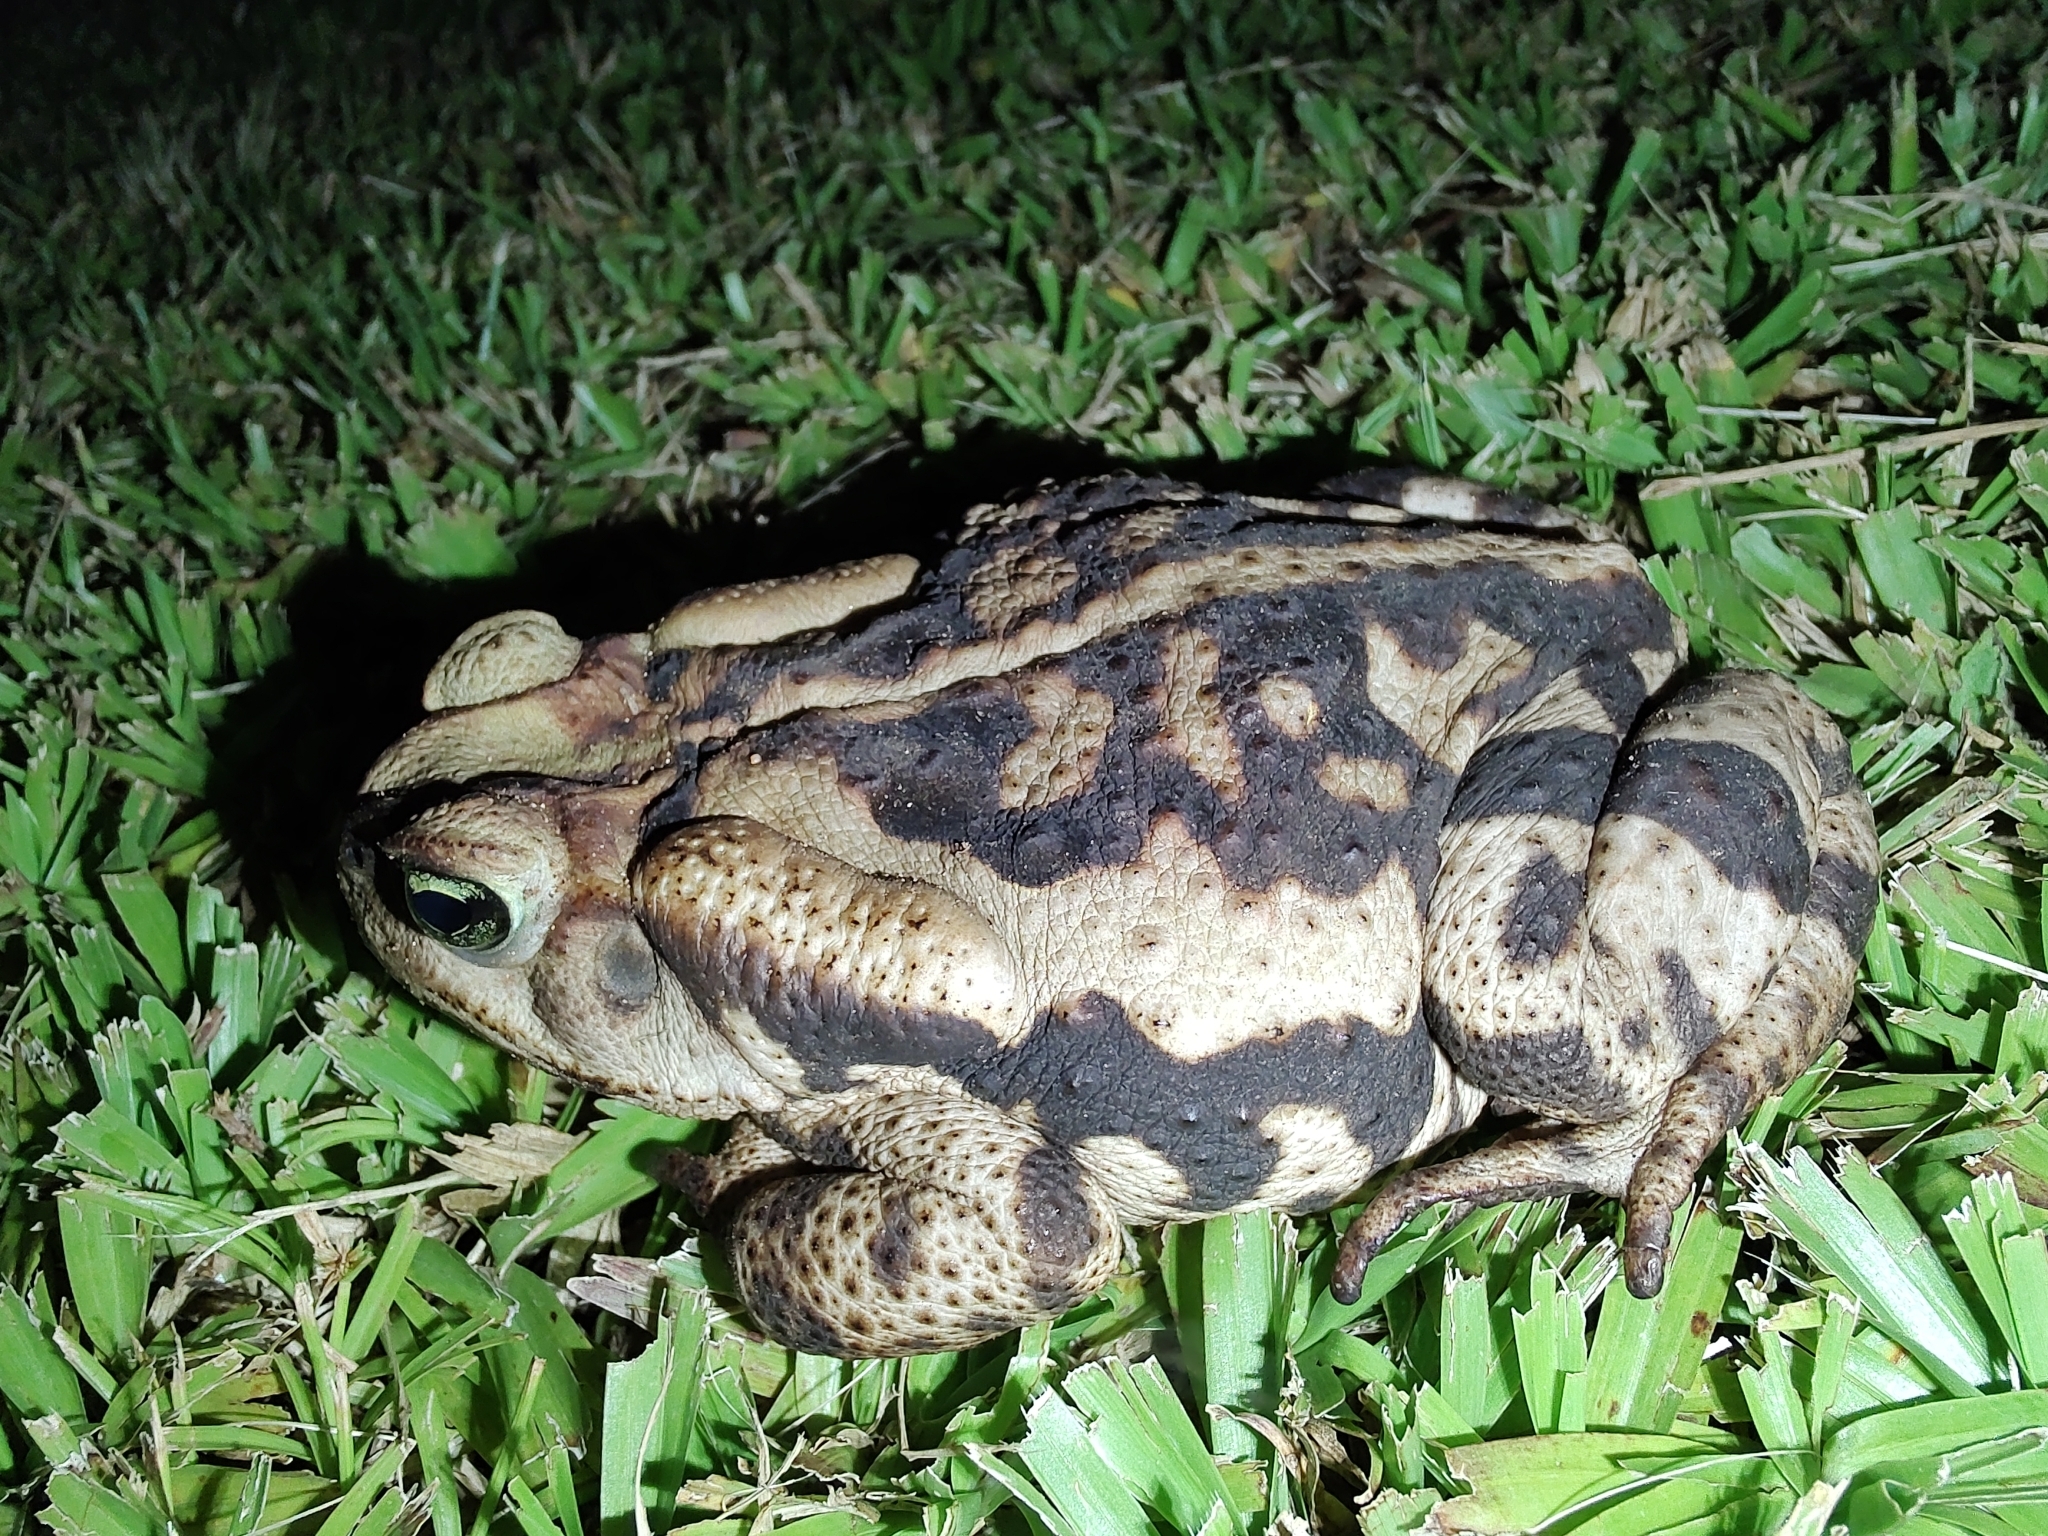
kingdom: Animalia
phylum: Chordata
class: Amphibia
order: Anura
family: Bufonidae
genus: Rhinella
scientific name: Rhinella icterica
